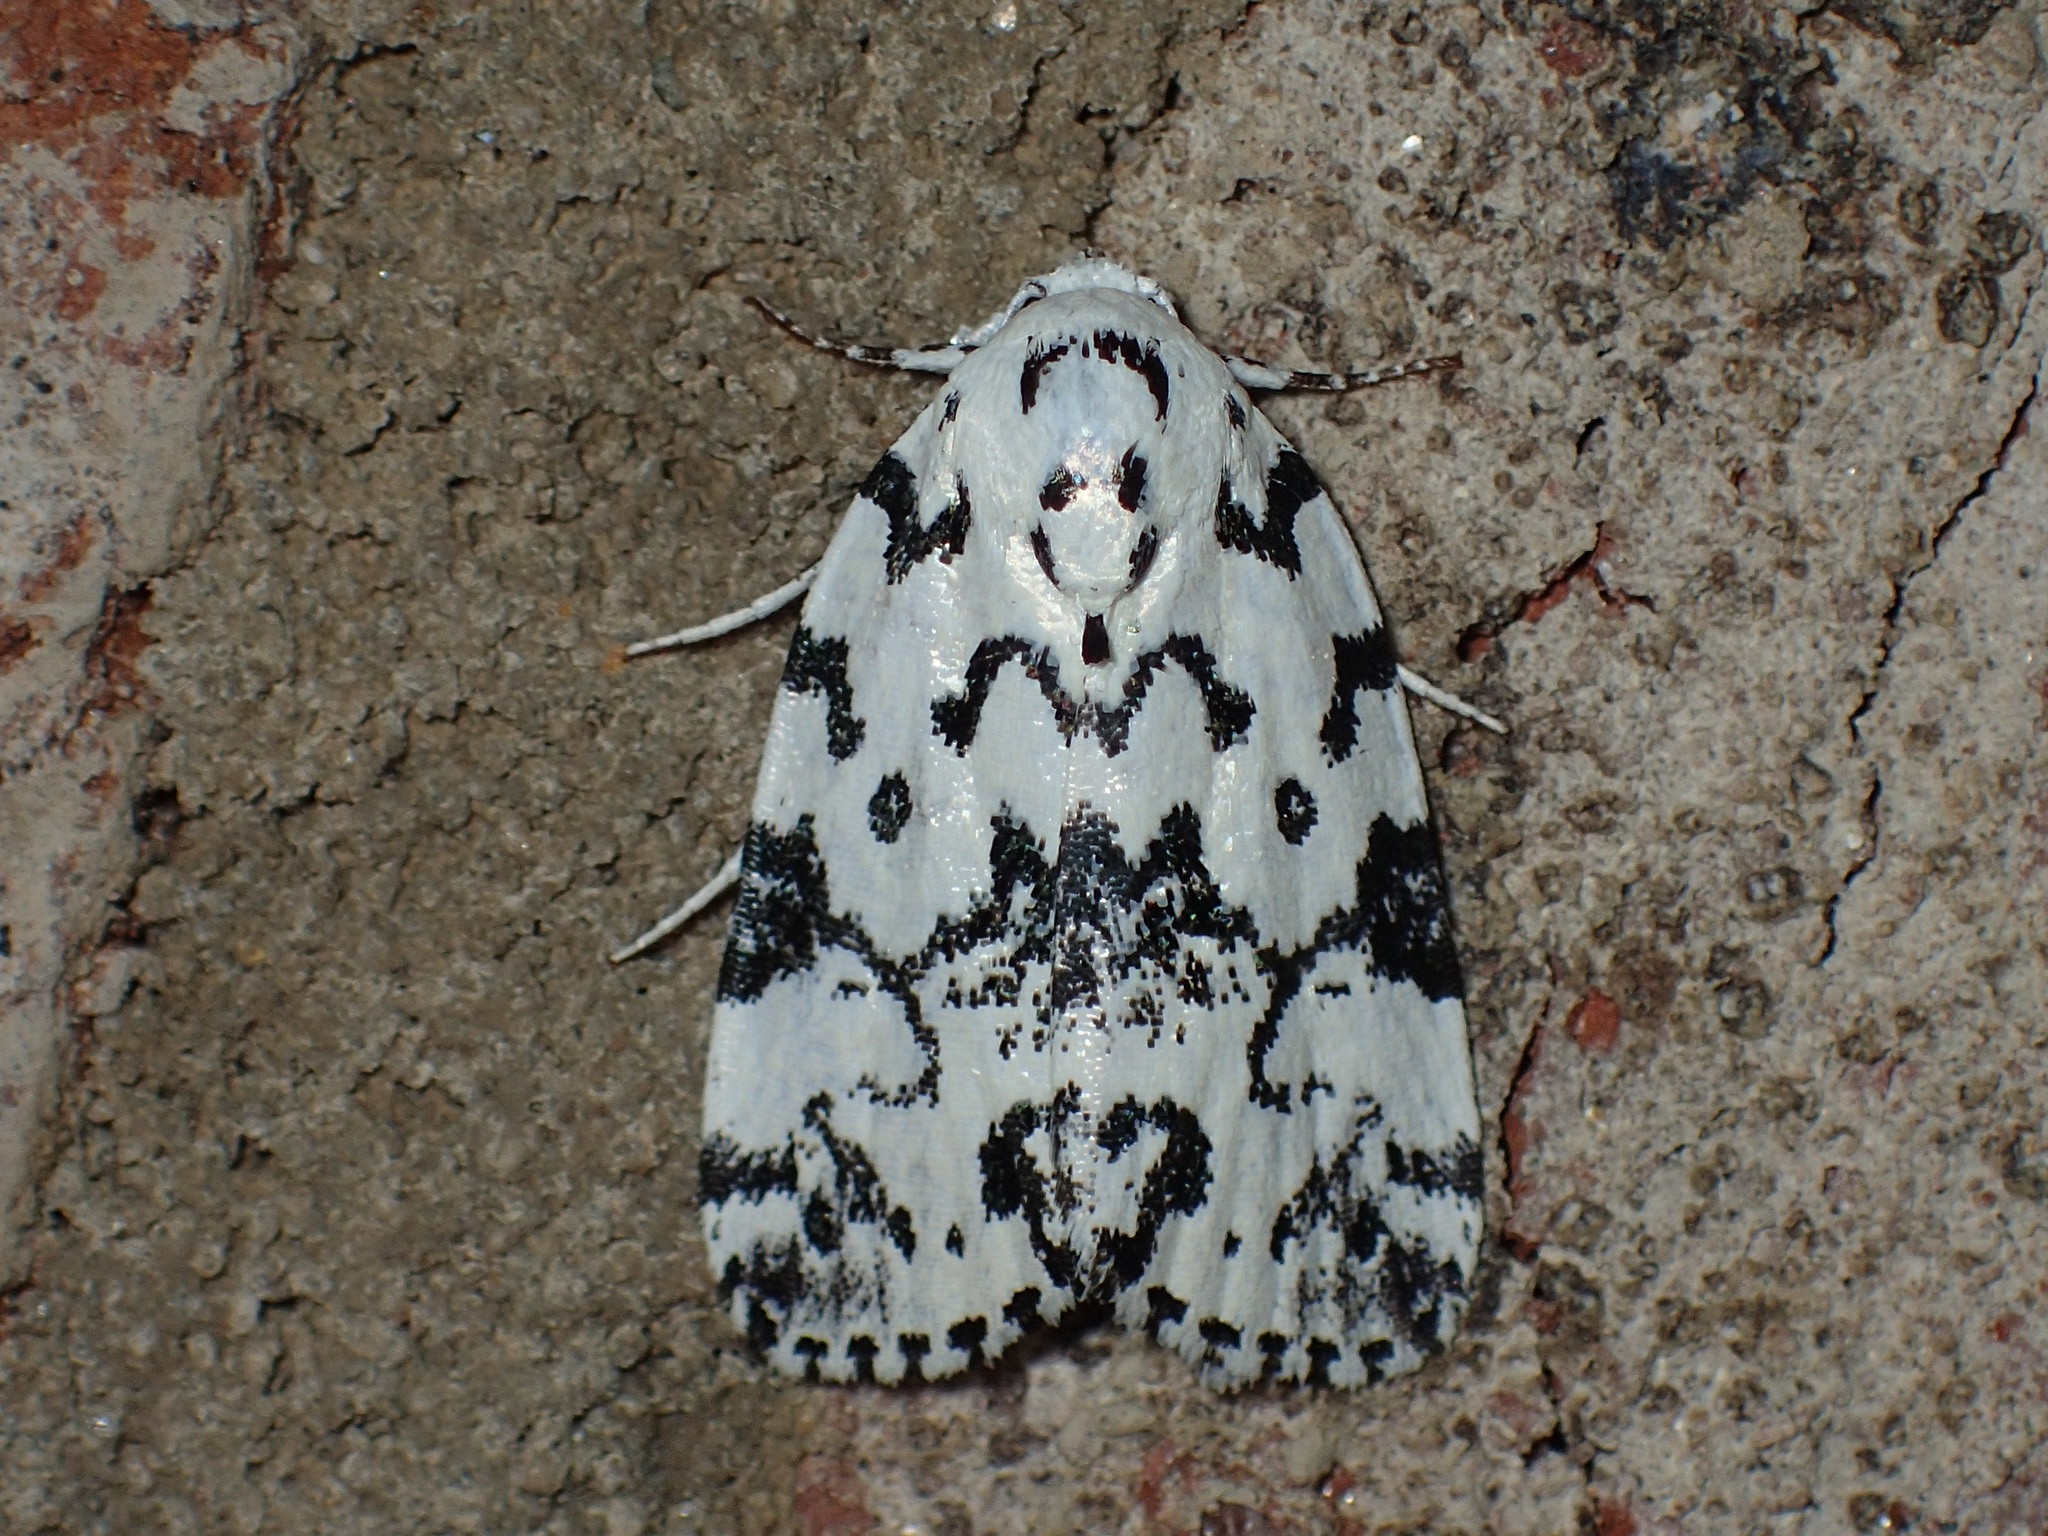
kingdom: Animalia
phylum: Arthropoda
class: Insecta
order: Lepidoptera
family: Noctuidae
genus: Polygrammate
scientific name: Polygrammate hebraeicum
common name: Hebrew moth
